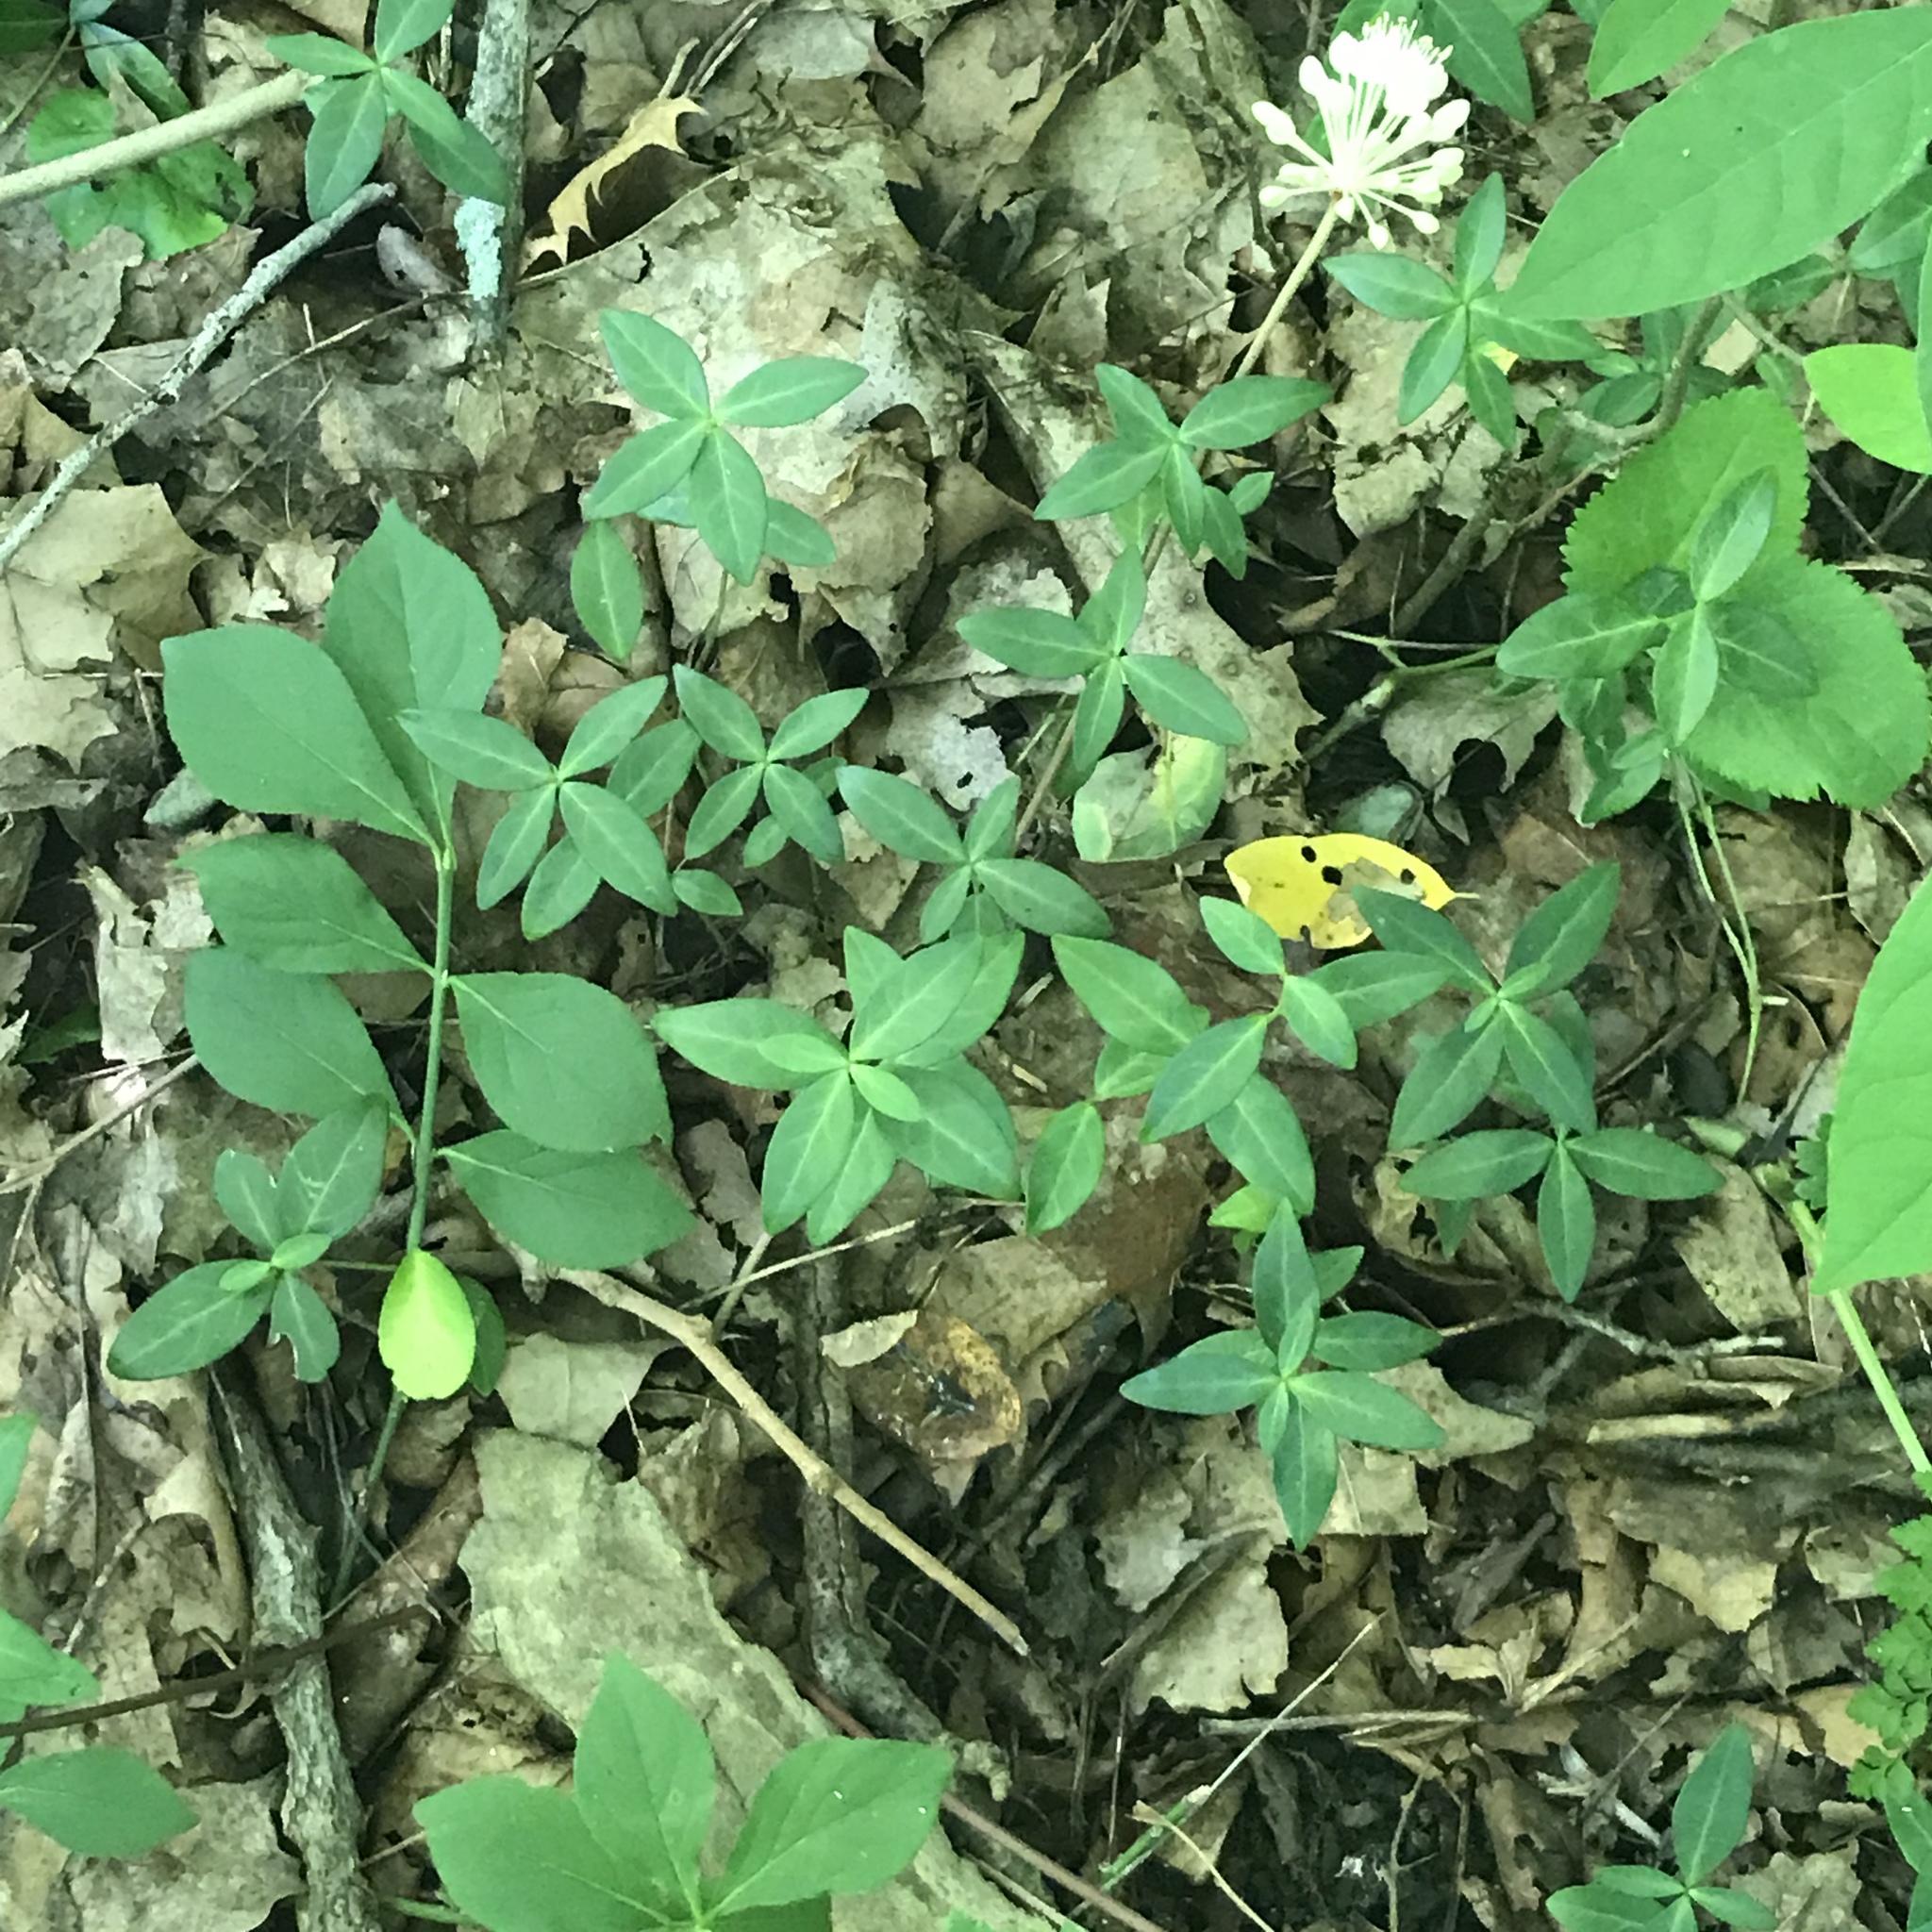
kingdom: Plantae
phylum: Tracheophyta
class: Magnoliopsida
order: Gentianales
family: Apocynaceae
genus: Vinca
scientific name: Vinca minor
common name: Lesser periwinkle
